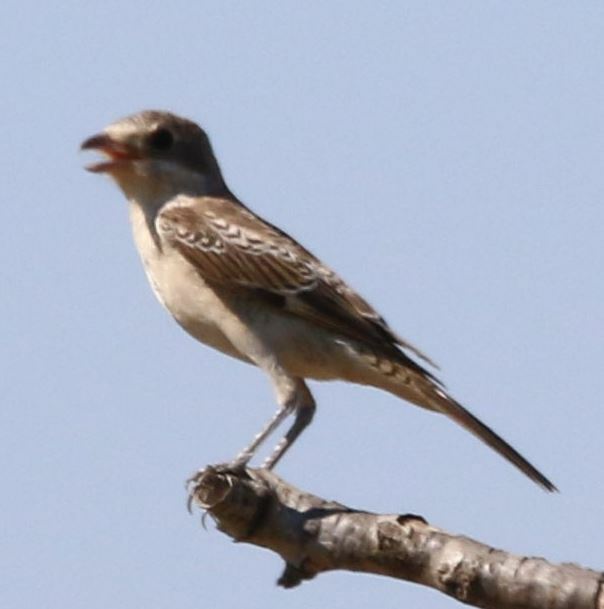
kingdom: Animalia
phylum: Chordata
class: Aves
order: Passeriformes
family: Laniidae
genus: Lanius
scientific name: Lanius senator
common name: Woodchat shrike
